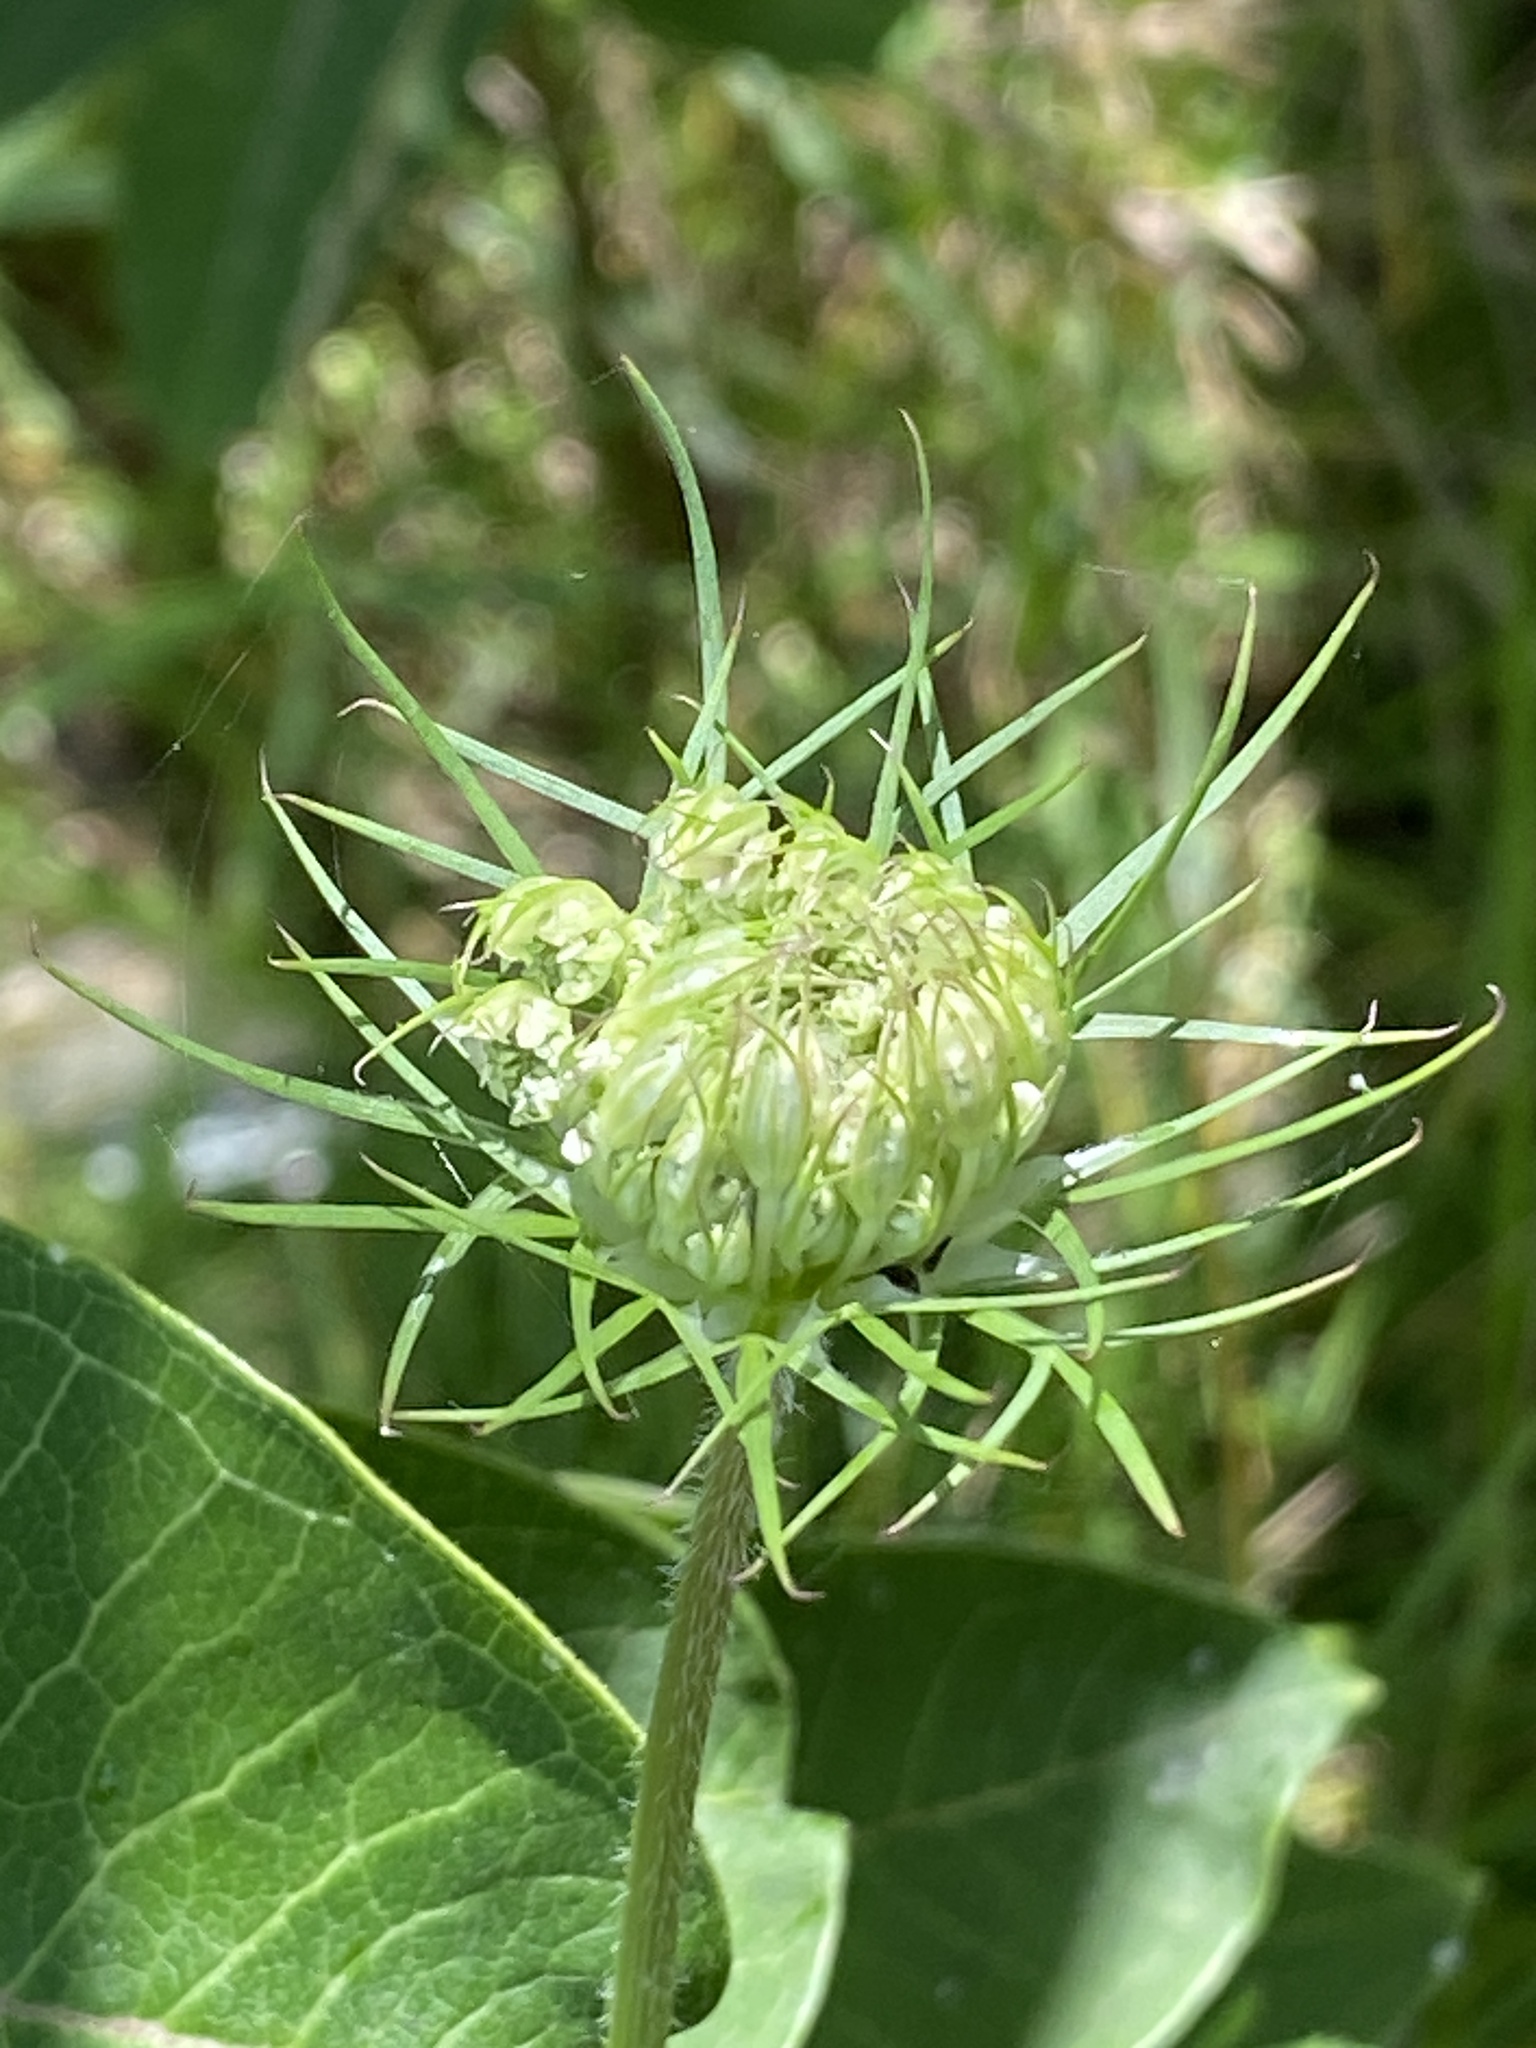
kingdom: Plantae
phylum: Tracheophyta
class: Magnoliopsida
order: Apiales
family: Apiaceae
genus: Daucus
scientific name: Daucus carota
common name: Wild carrot
